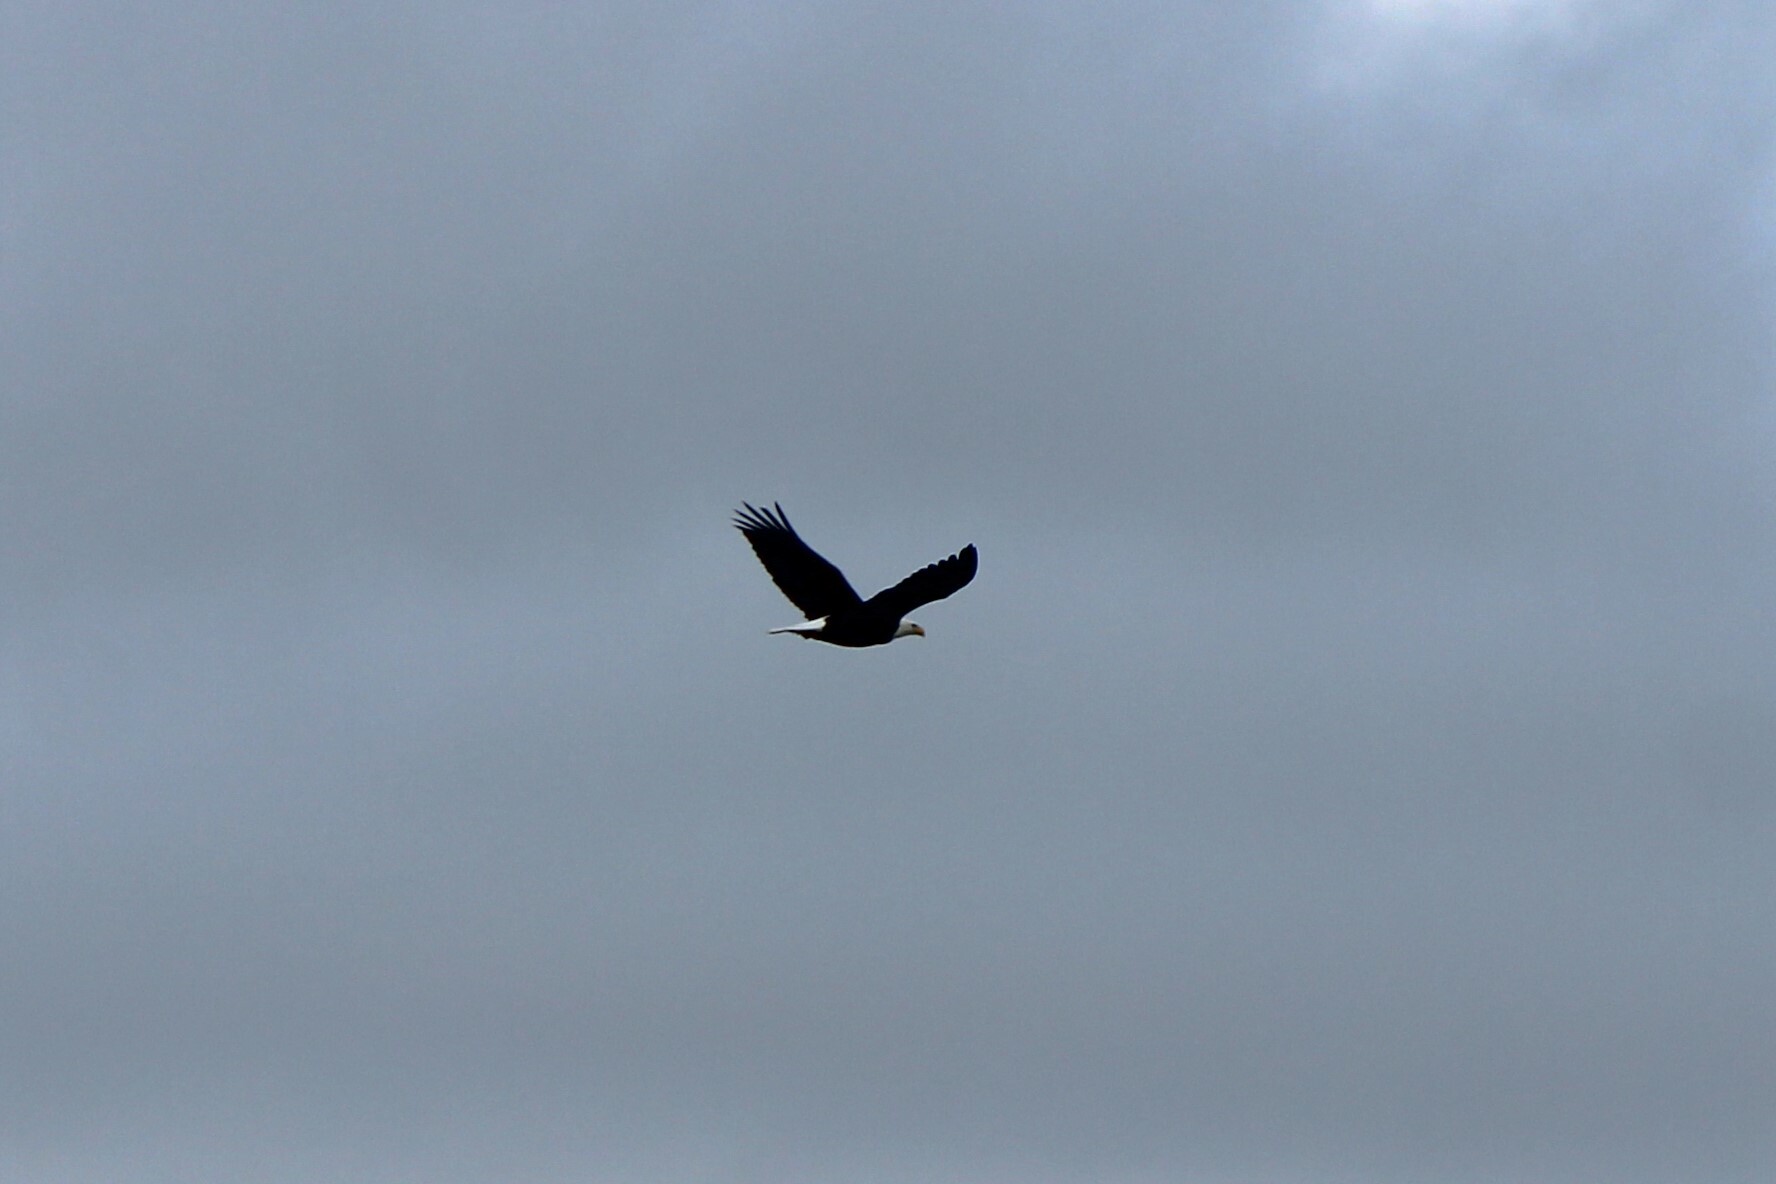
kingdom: Animalia
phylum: Chordata
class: Aves
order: Accipitriformes
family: Accipitridae
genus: Haliaeetus
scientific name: Haliaeetus leucocephalus
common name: Bald eagle
